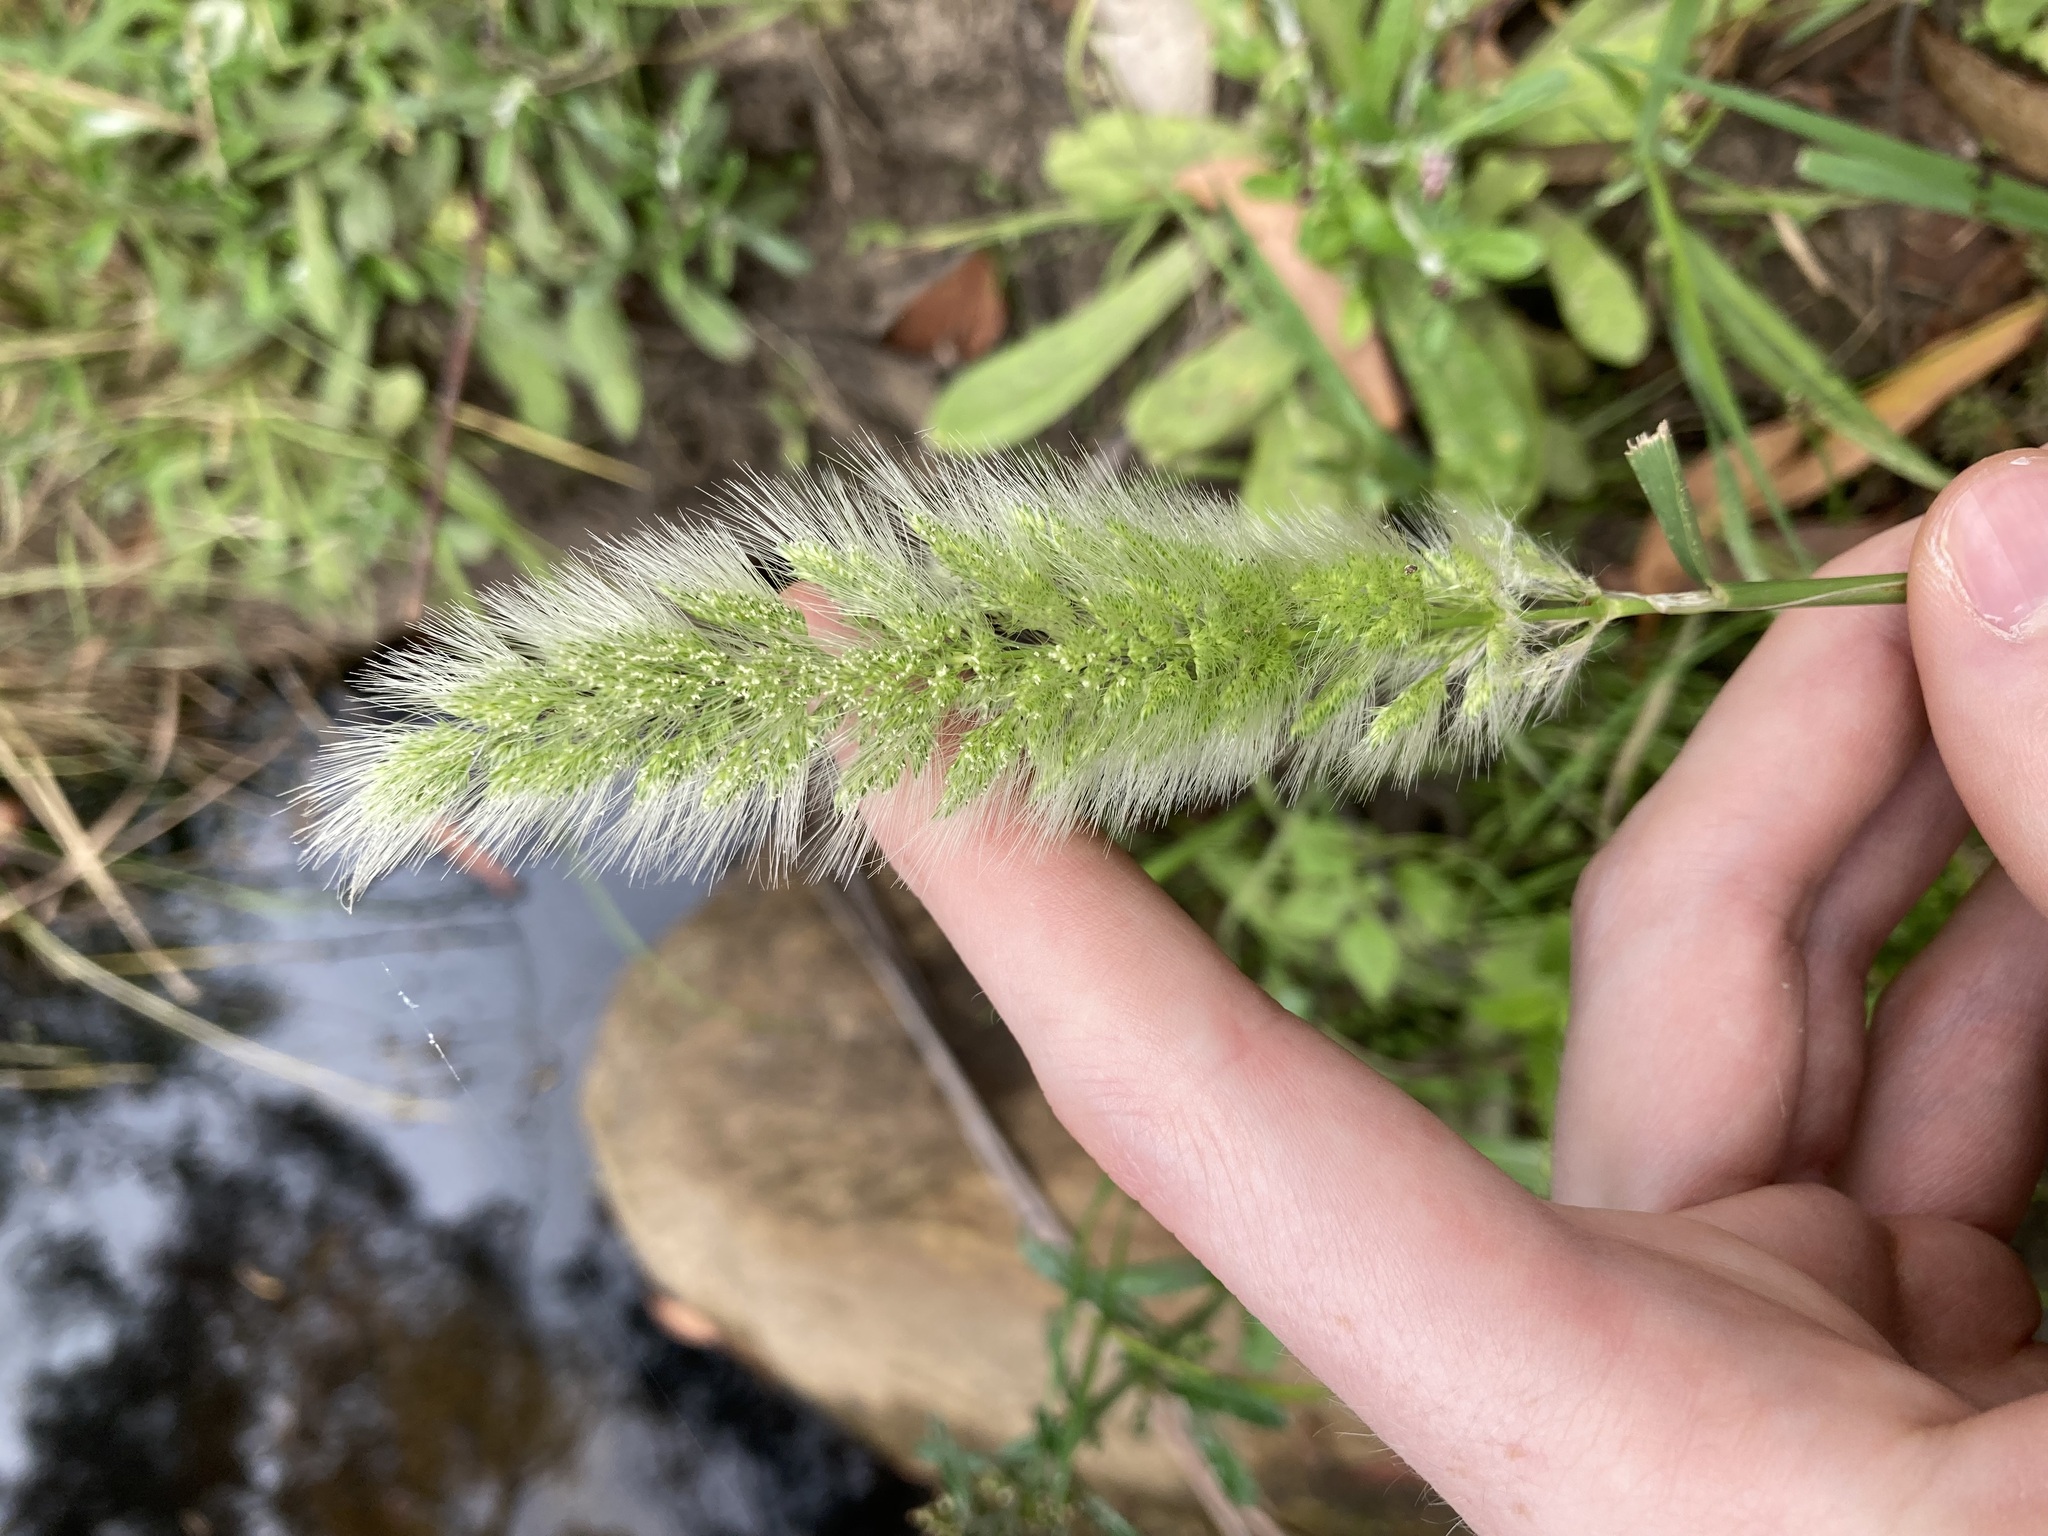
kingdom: Plantae
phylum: Tracheophyta
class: Liliopsida
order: Poales
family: Poaceae
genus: Polypogon
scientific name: Polypogon monspeliensis
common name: Annual rabbitsfoot grass
